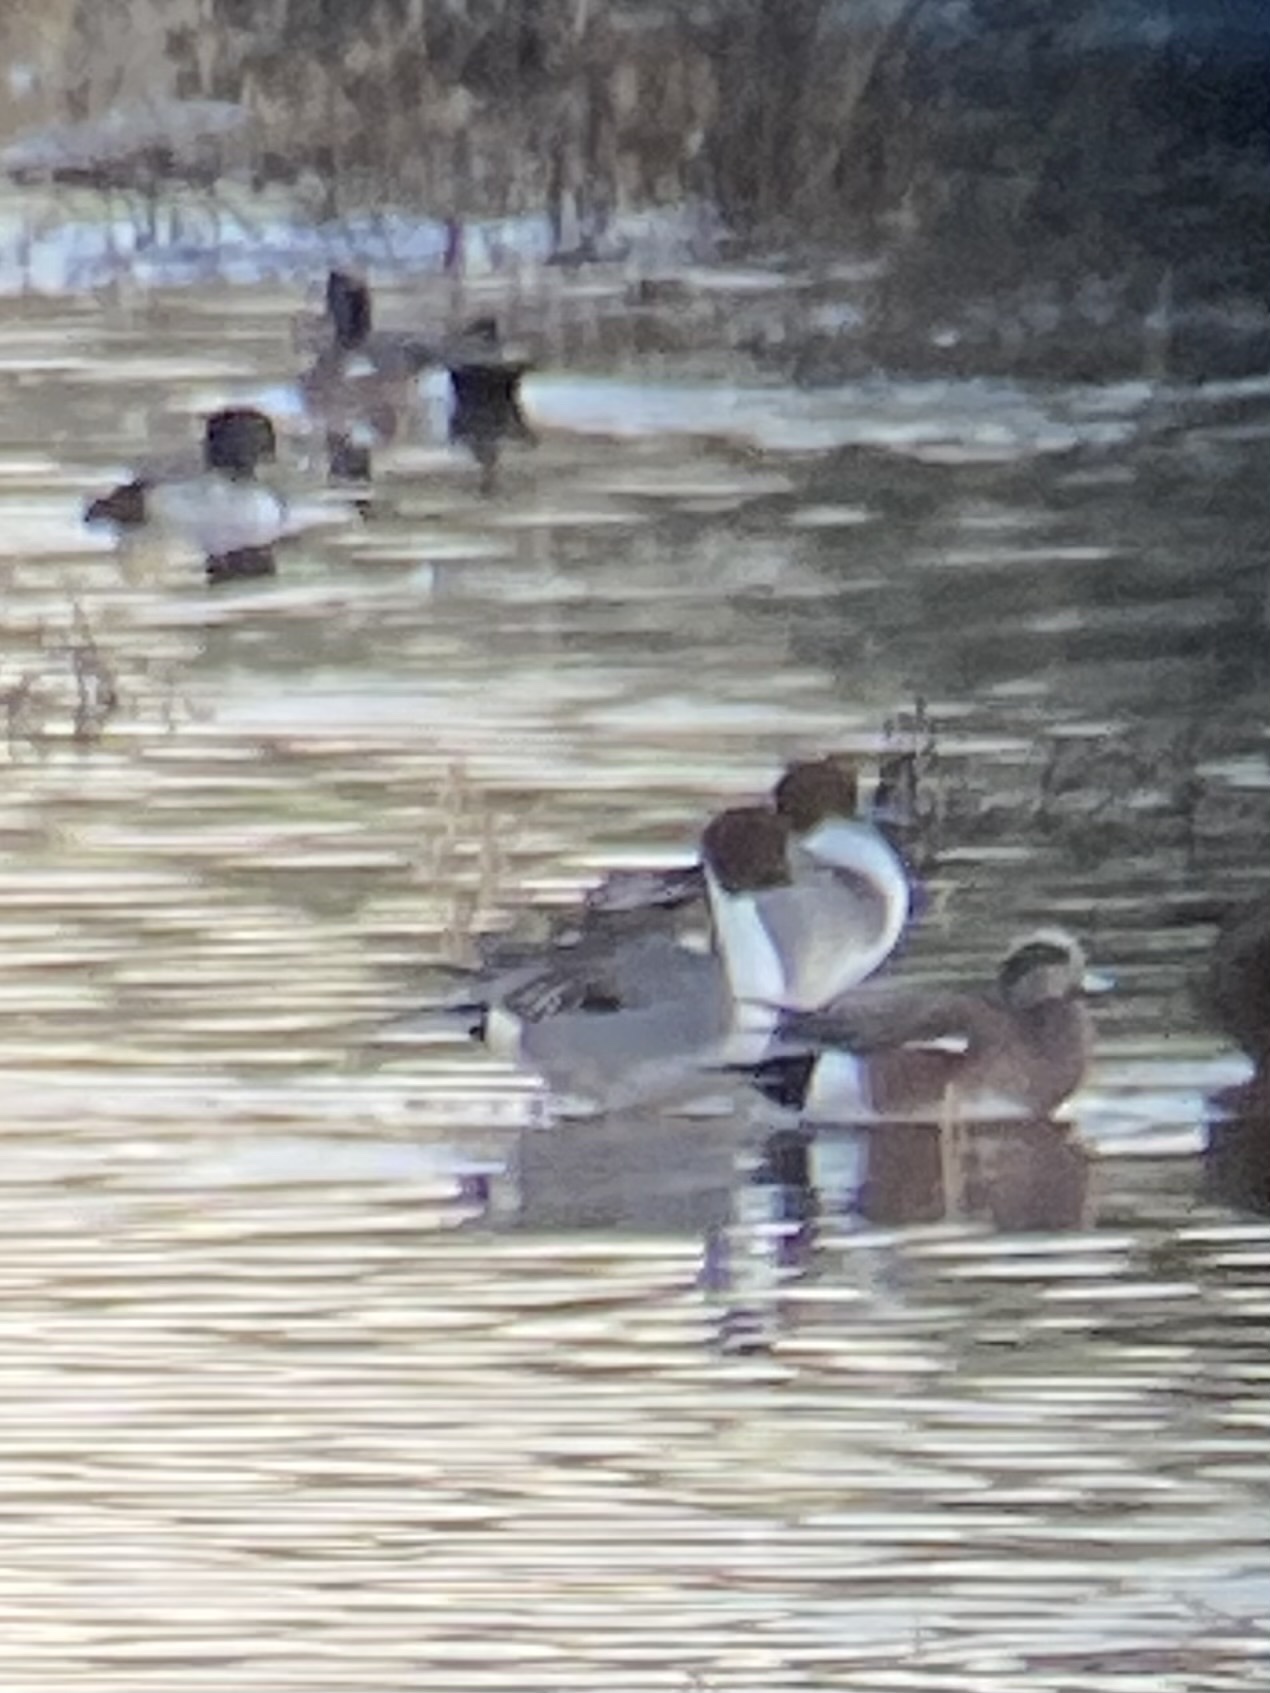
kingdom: Animalia
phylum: Chordata
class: Aves
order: Anseriformes
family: Anatidae
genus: Anas
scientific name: Anas acuta
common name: Northern pintail
